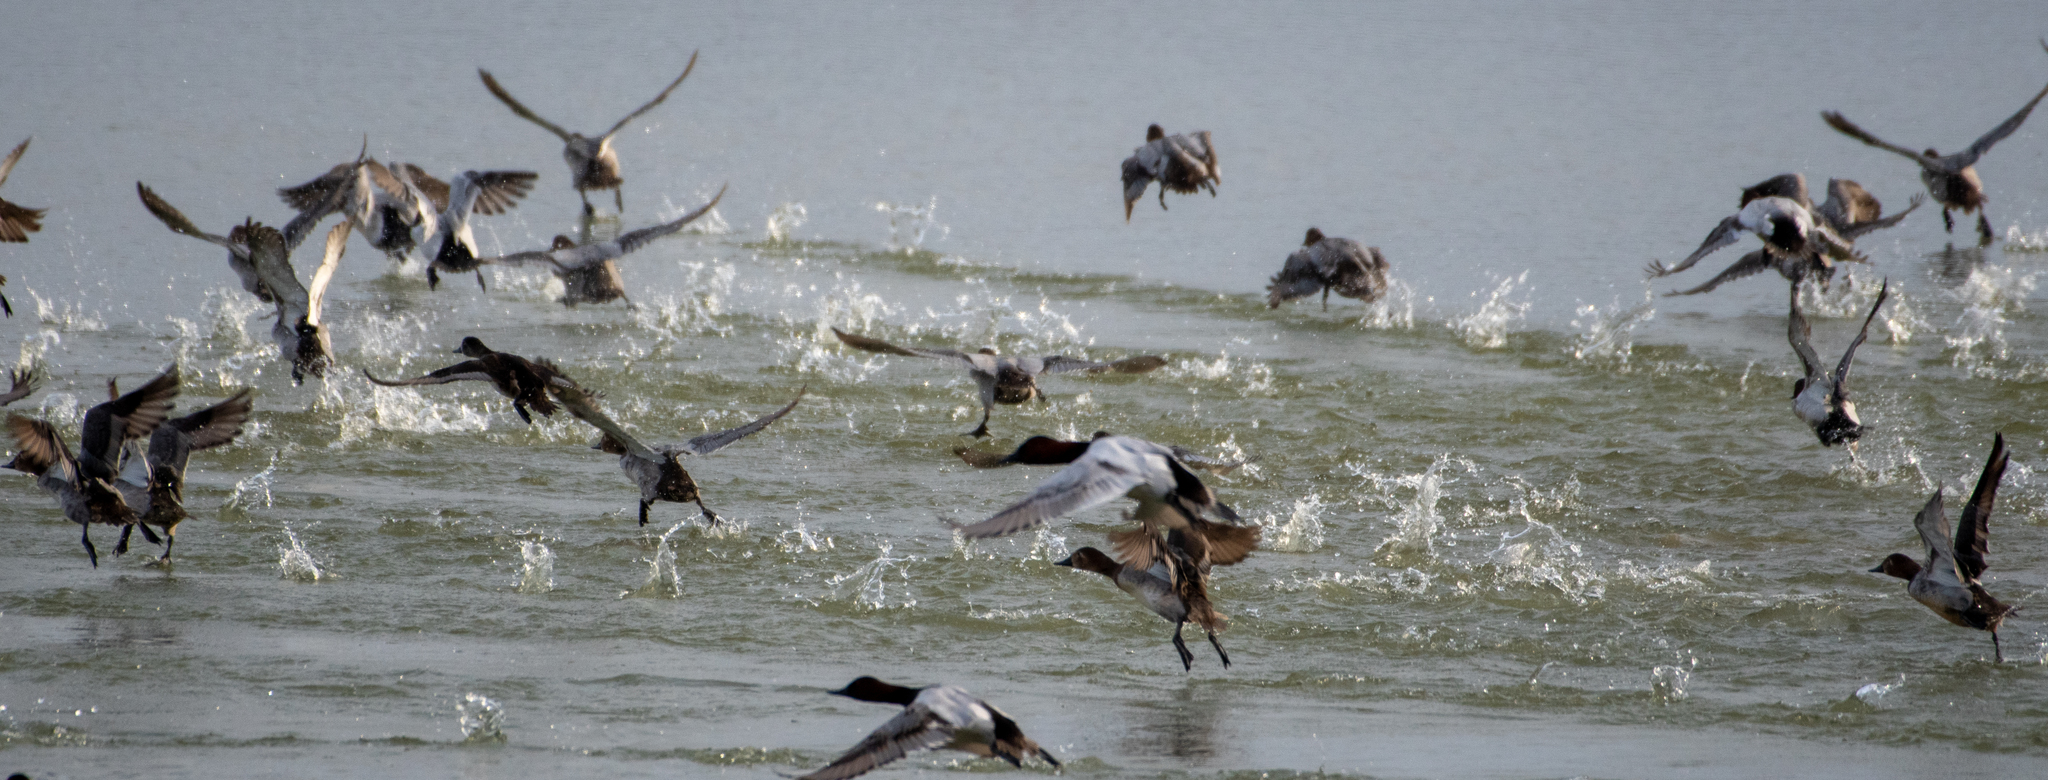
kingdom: Animalia
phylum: Chordata
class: Aves
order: Anseriformes
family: Anatidae
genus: Anas
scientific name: Anas platyrhynchos
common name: Mallard
